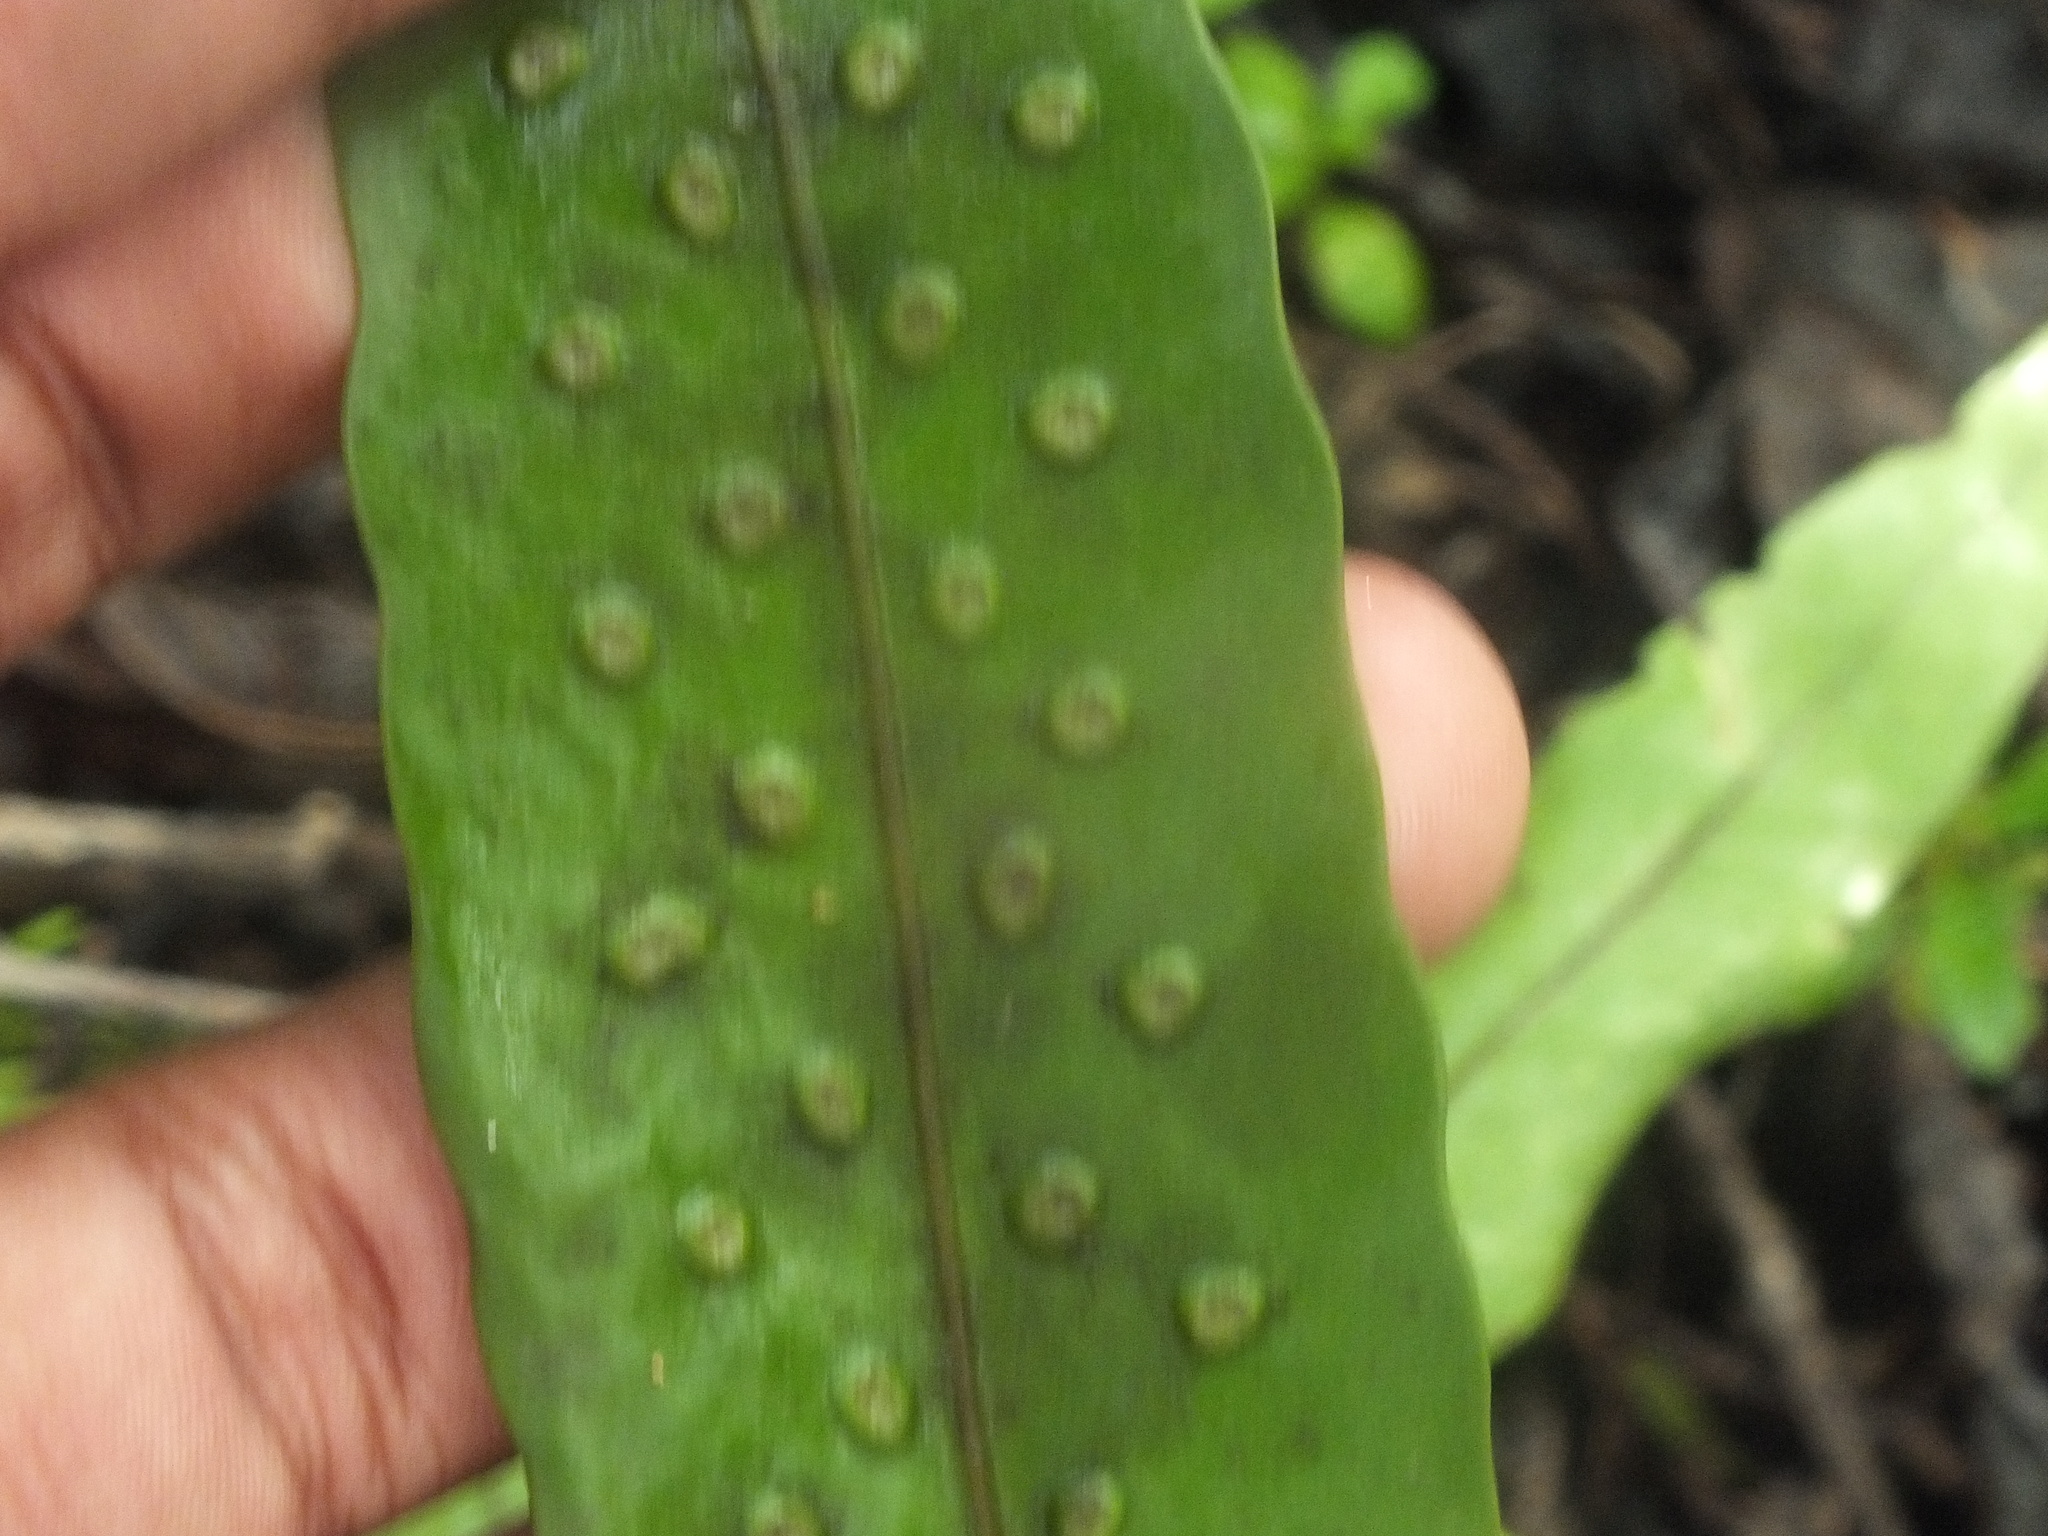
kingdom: Plantae
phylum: Tracheophyta
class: Polypodiopsida
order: Polypodiales
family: Polypodiaceae
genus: Microsorum
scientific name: Microsorum grossum
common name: Musk fern
